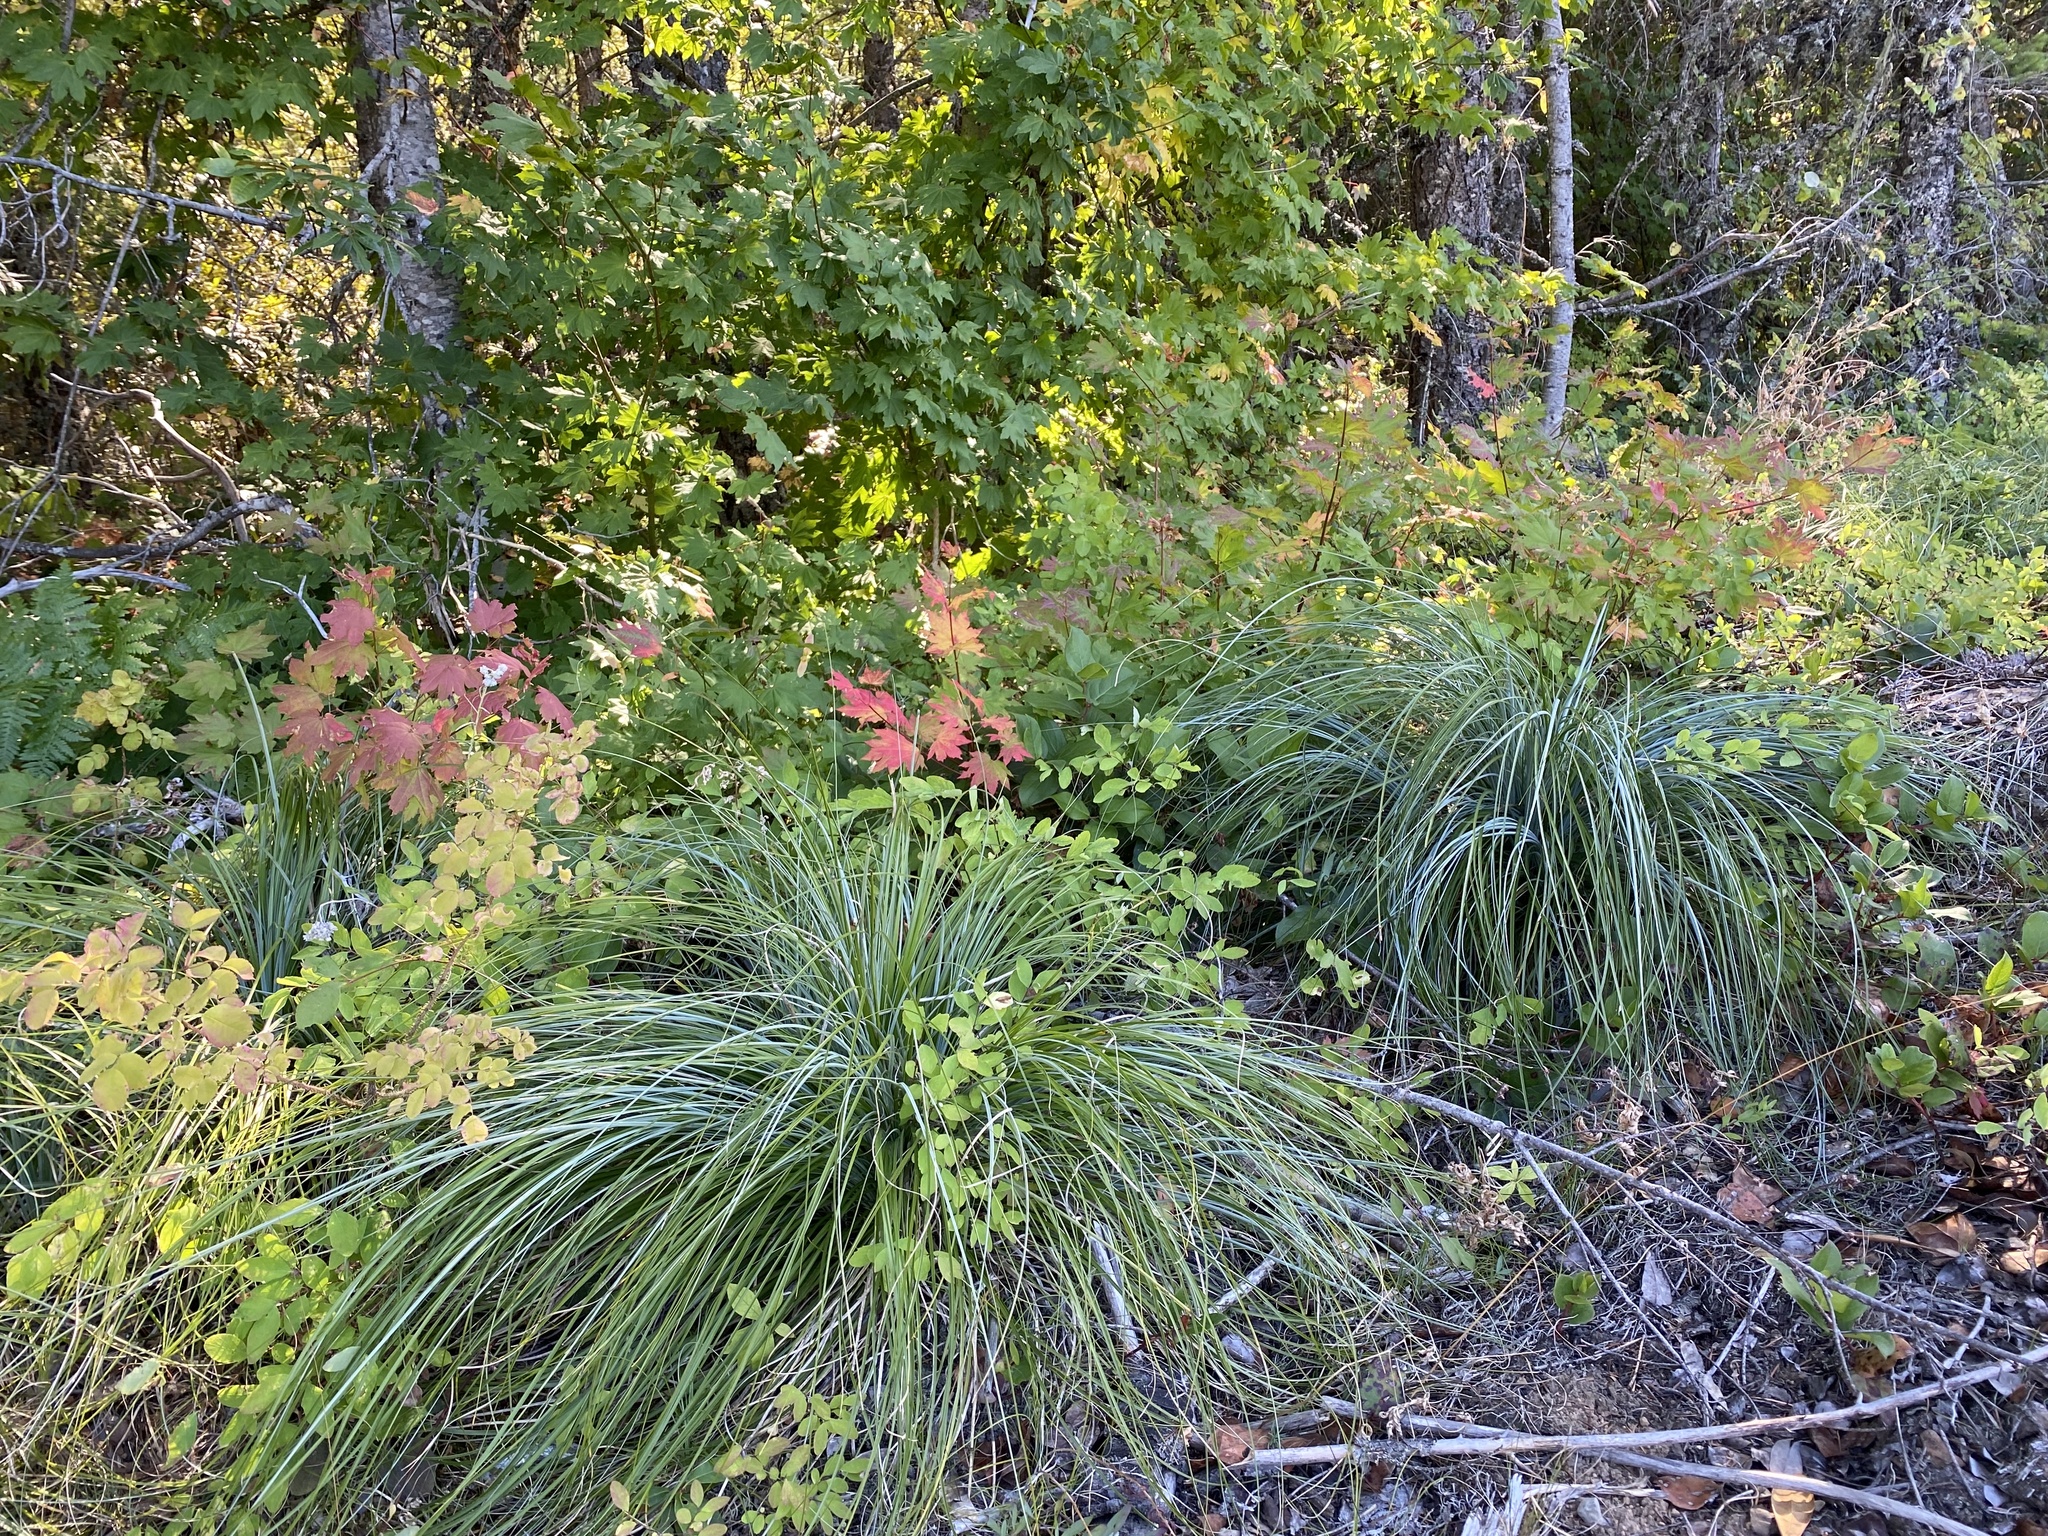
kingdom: Plantae
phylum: Tracheophyta
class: Liliopsida
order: Liliales
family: Melanthiaceae
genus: Xerophyllum
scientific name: Xerophyllum tenax
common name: Bear-grass
